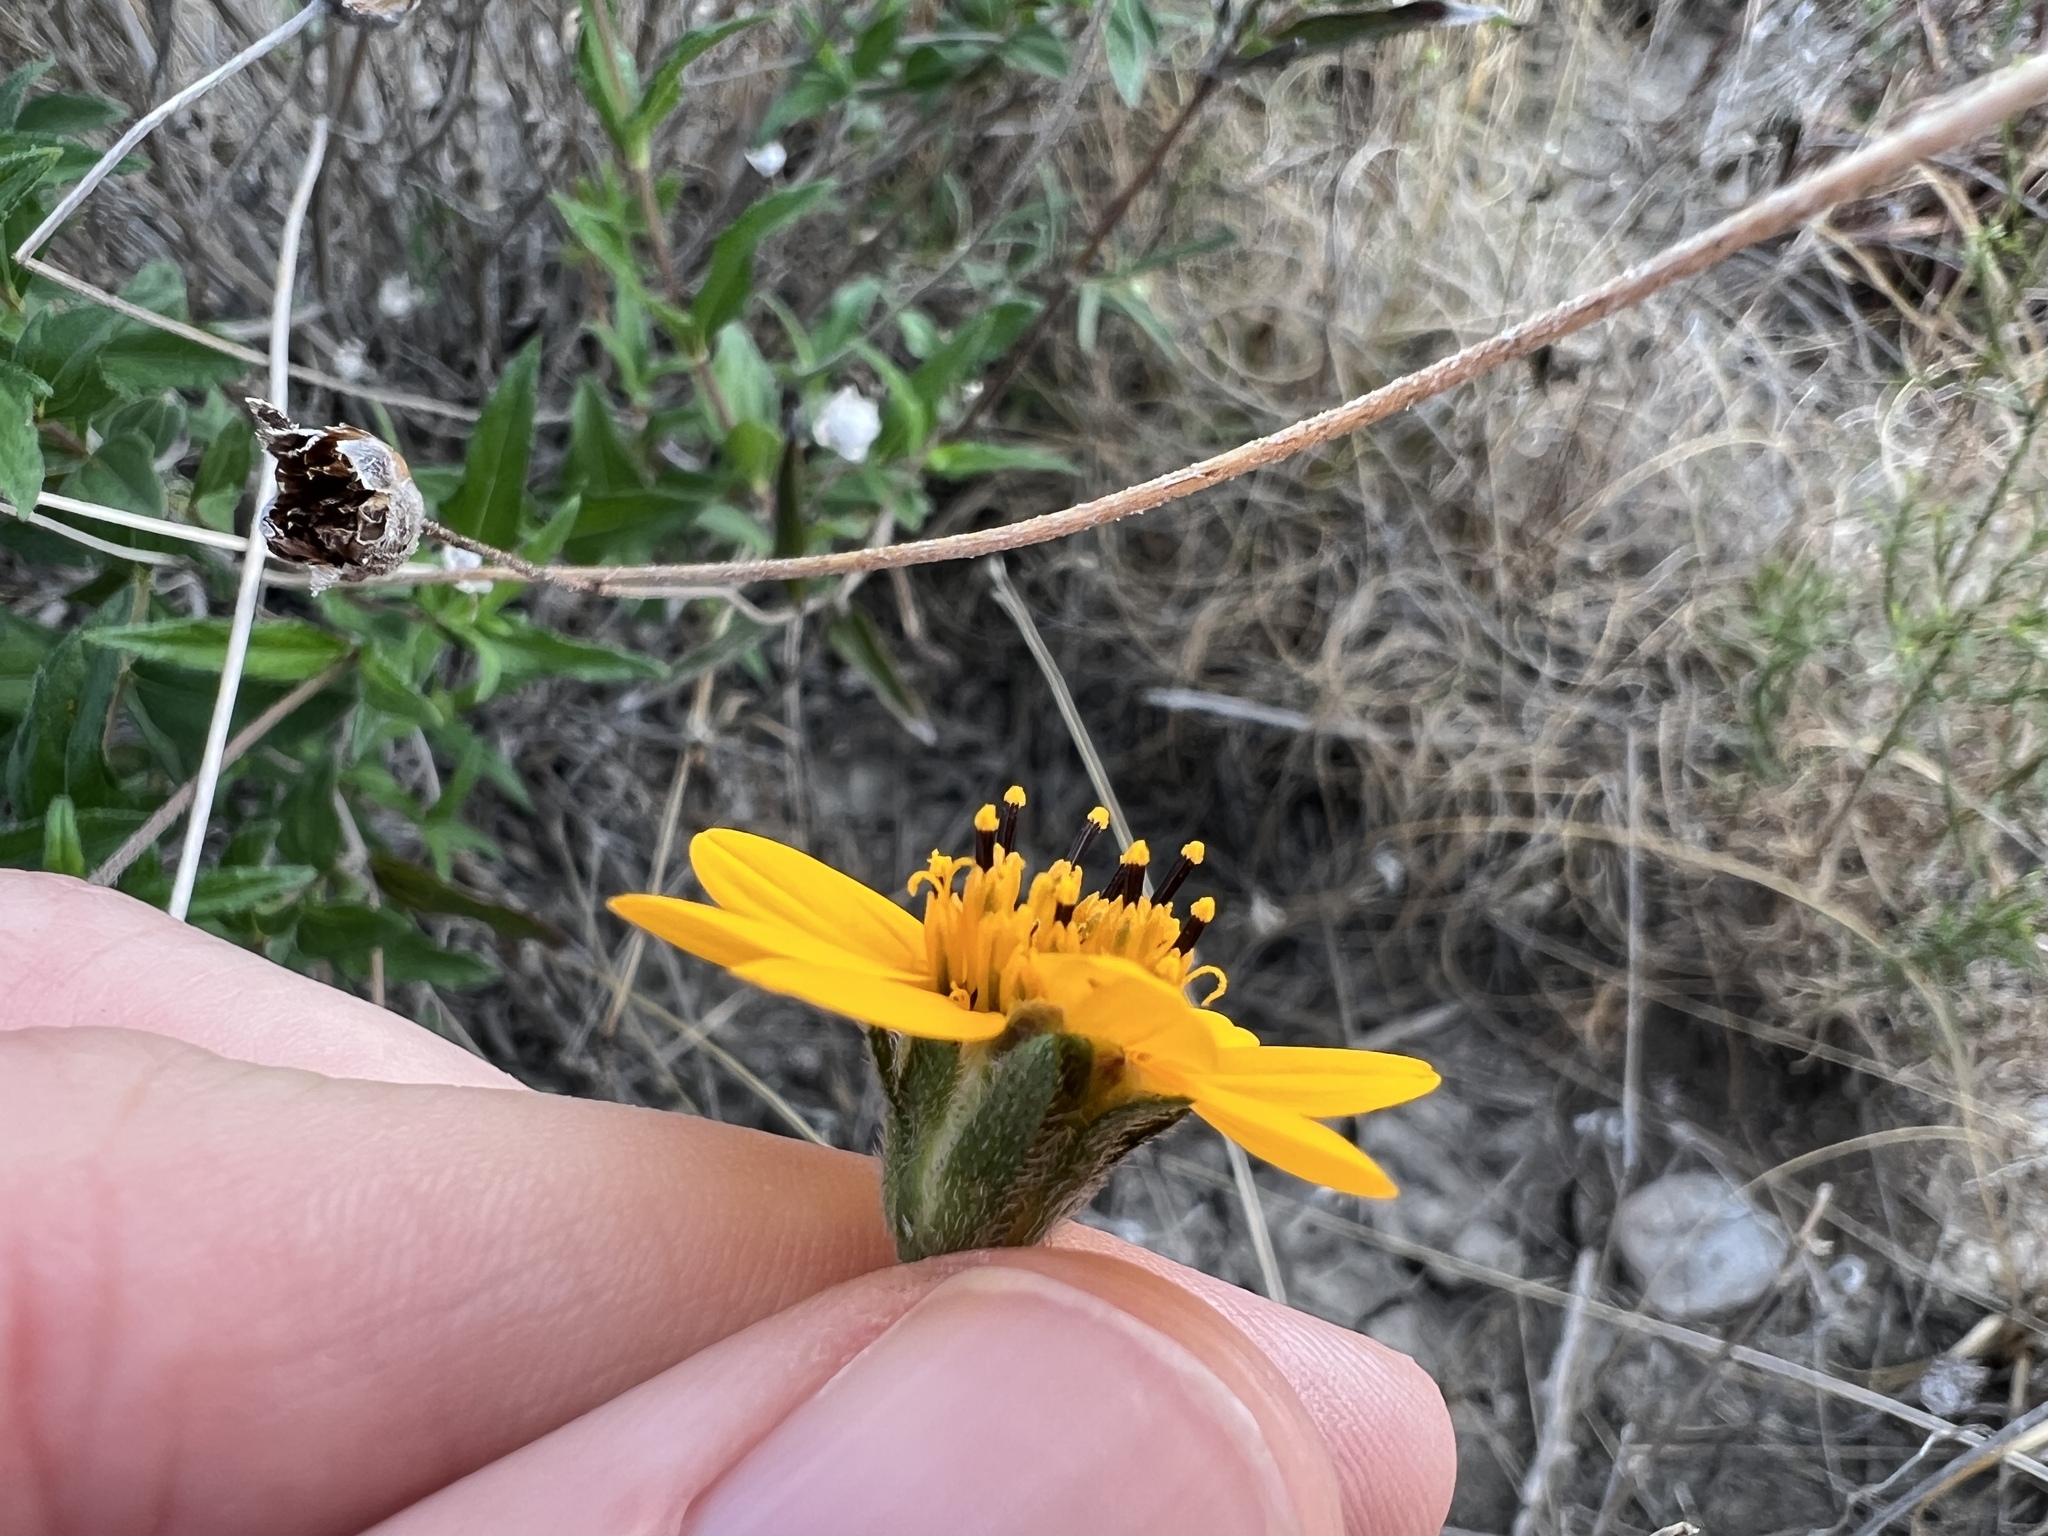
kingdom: Plantae
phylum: Tracheophyta
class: Magnoliopsida
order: Asterales
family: Asteraceae
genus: Wedelia
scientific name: Wedelia acapulcensis
